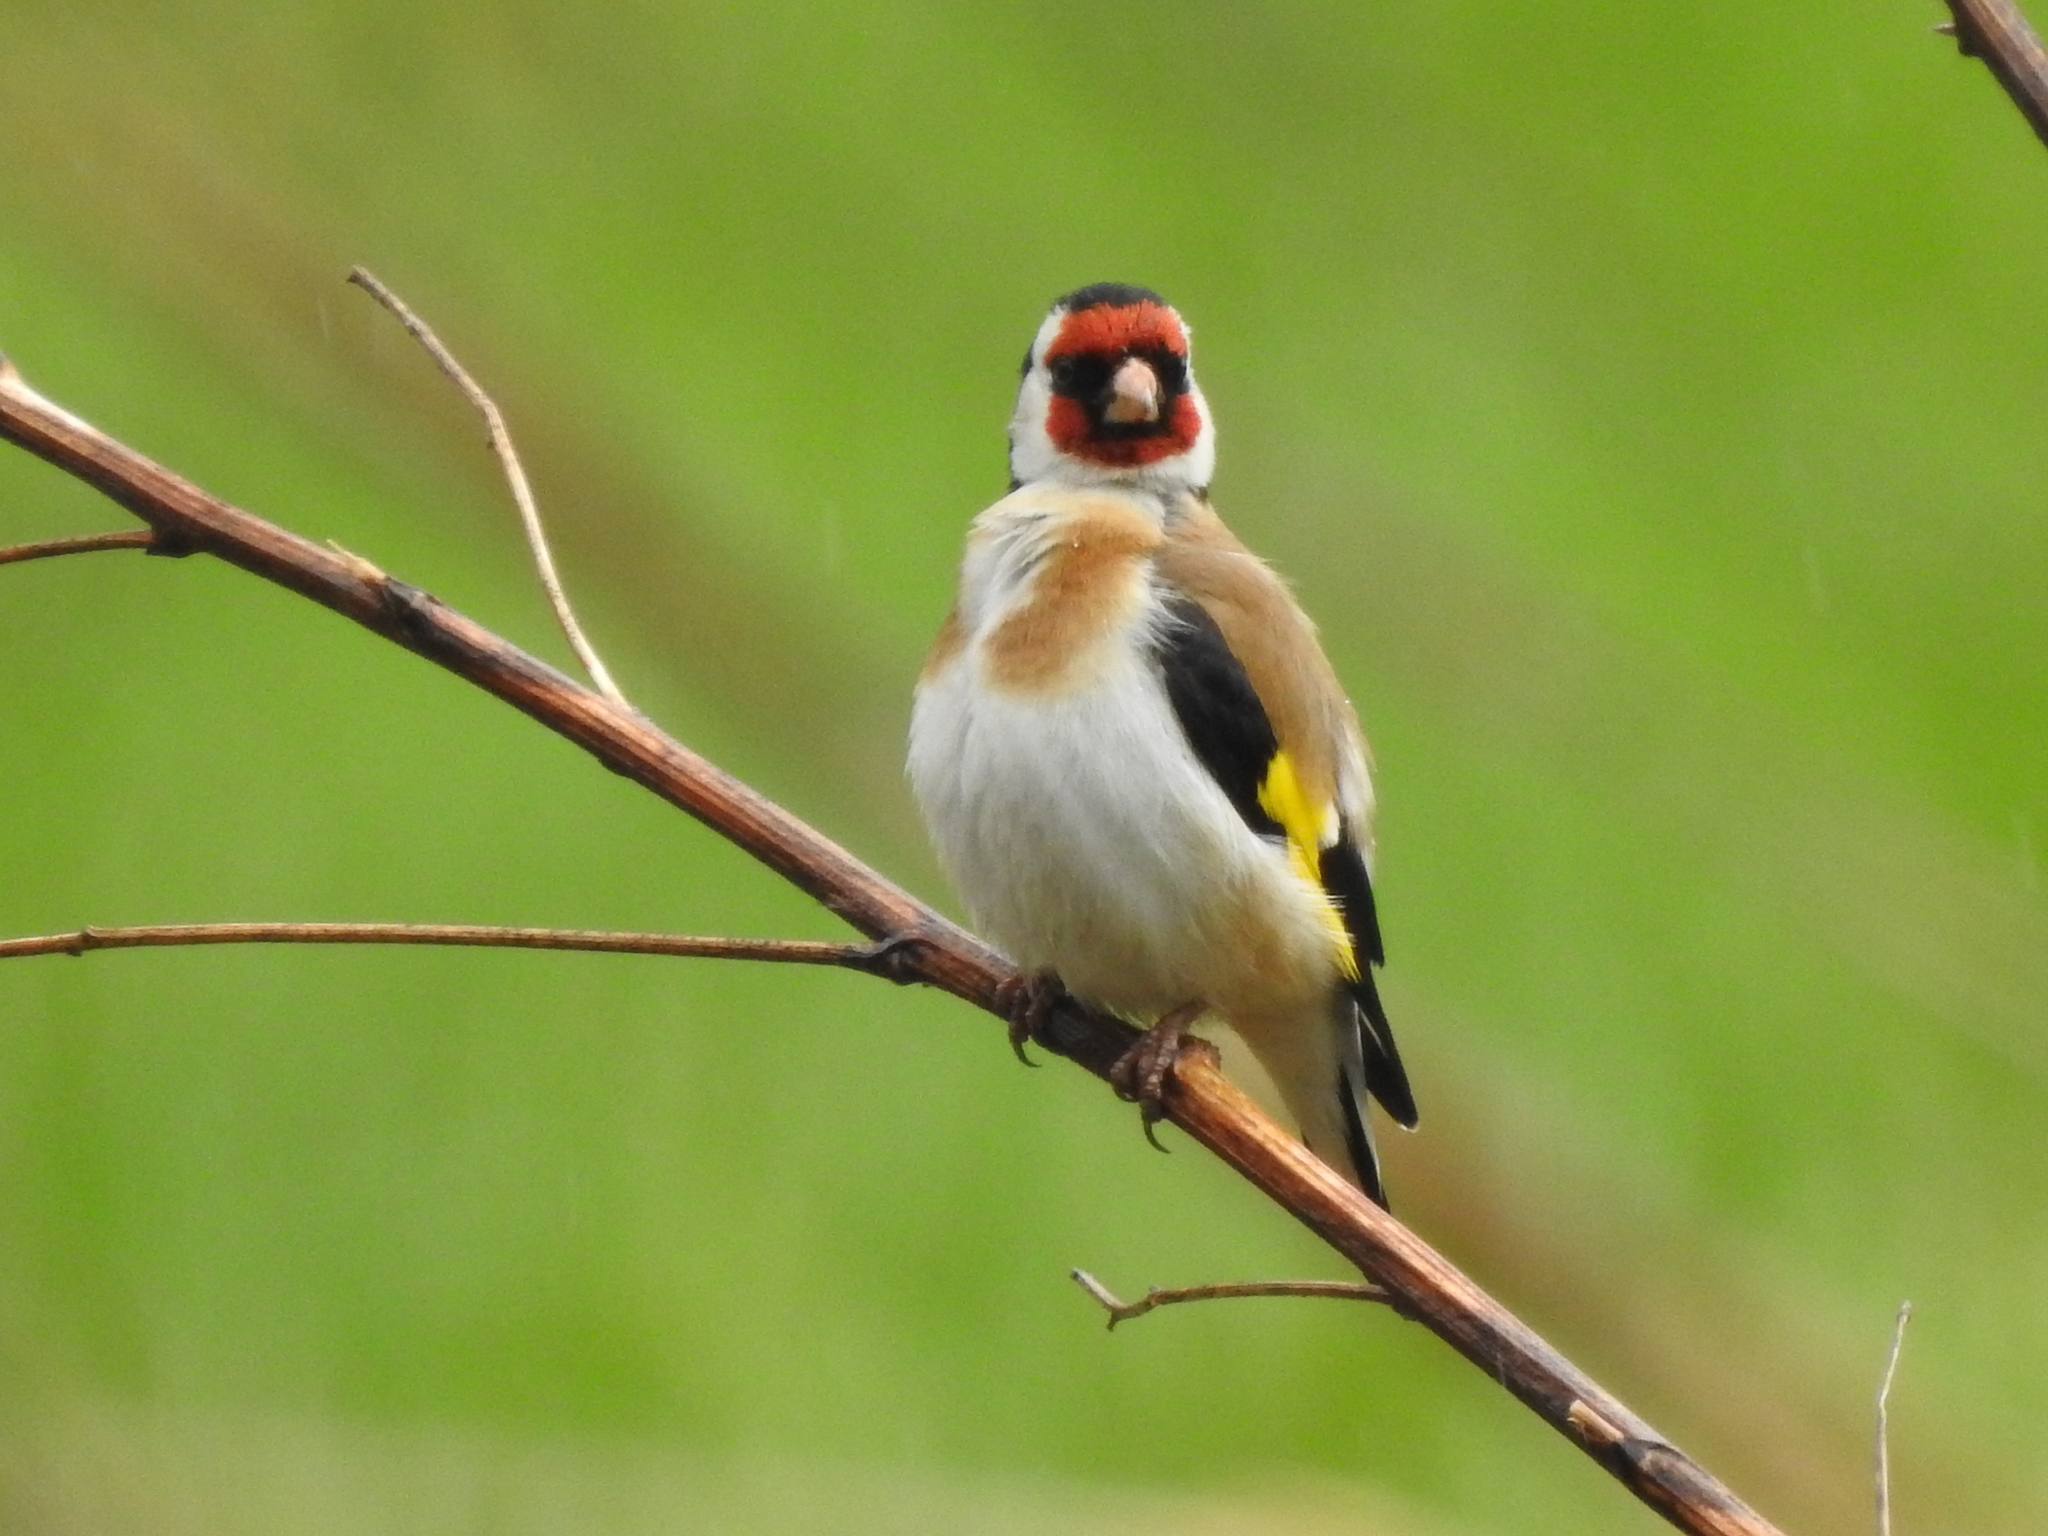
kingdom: Animalia
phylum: Chordata
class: Aves
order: Passeriformes
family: Fringillidae
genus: Carduelis
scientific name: Carduelis carduelis
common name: European goldfinch
